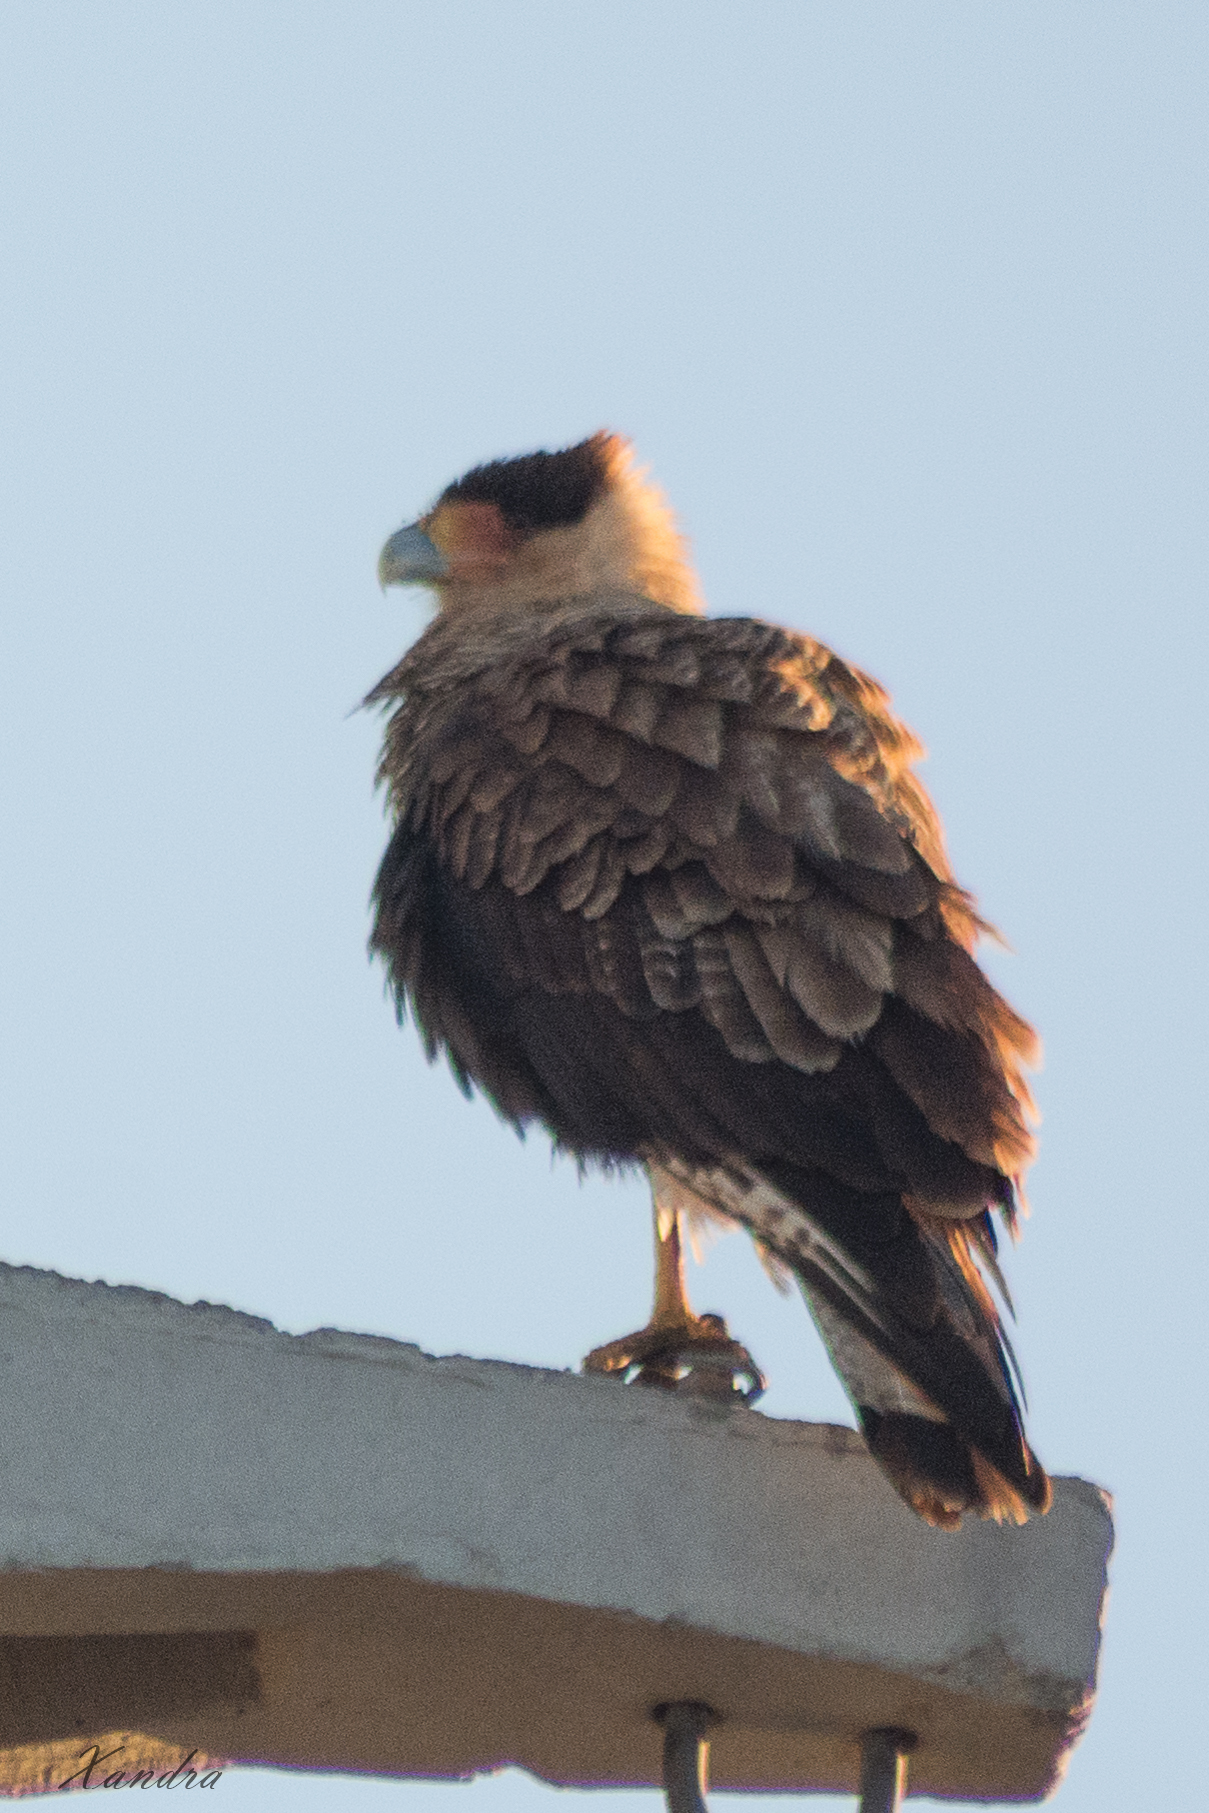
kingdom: Animalia
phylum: Chordata
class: Aves
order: Falconiformes
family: Falconidae
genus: Caracara
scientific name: Caracara plancus
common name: Southern caracara
